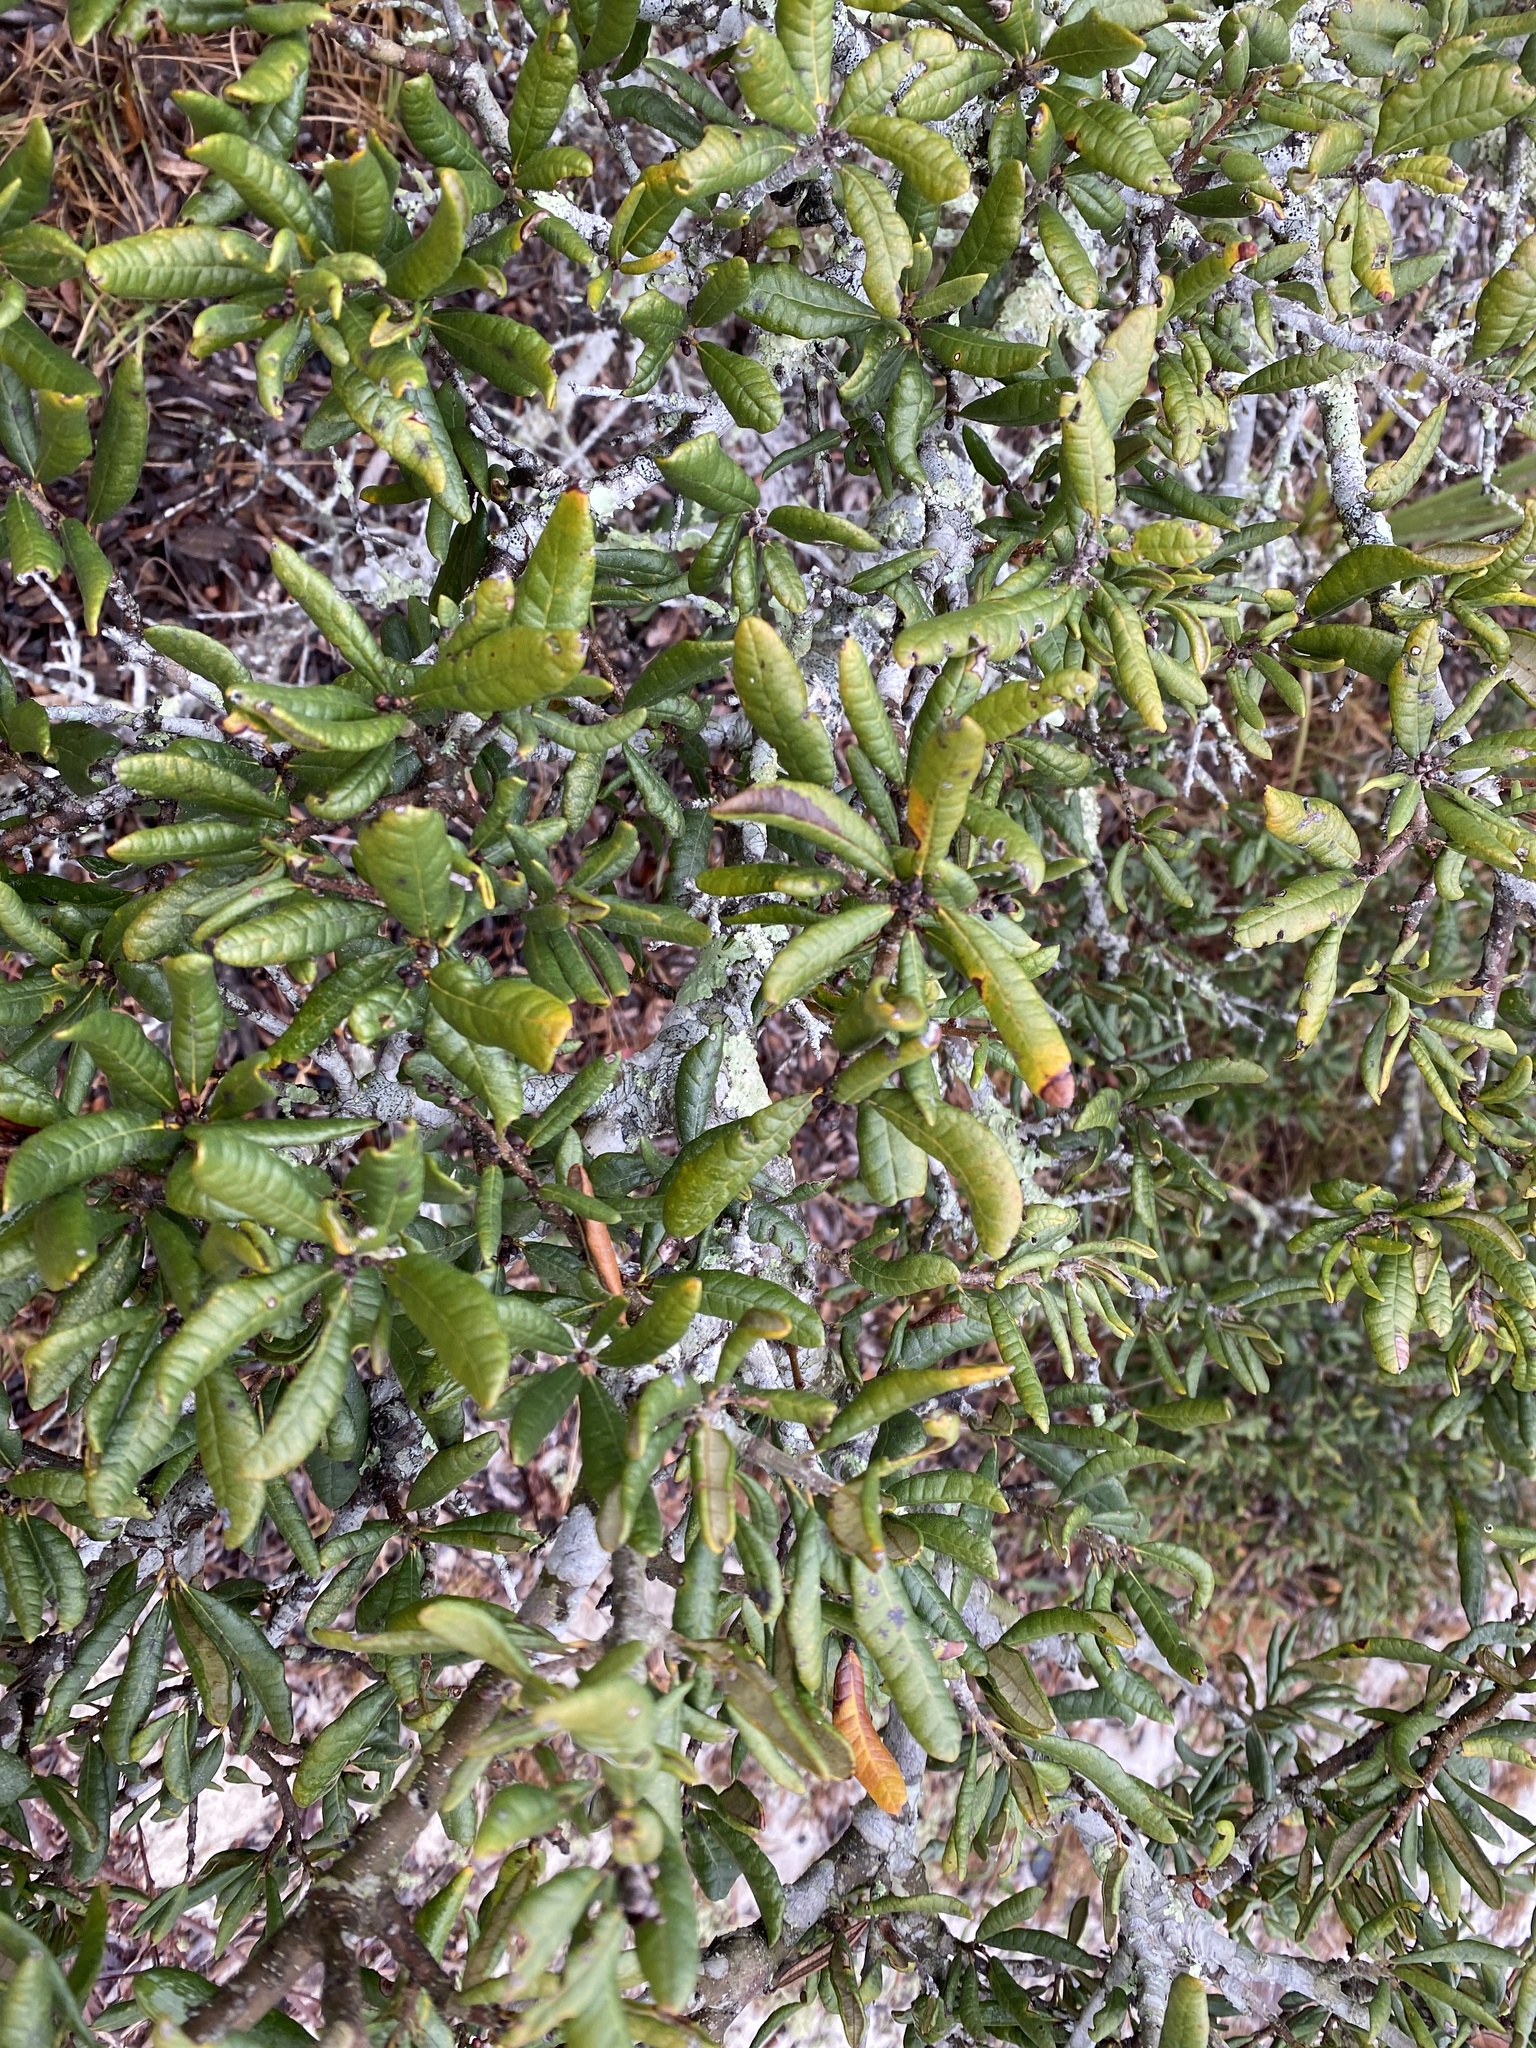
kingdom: Plantae
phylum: Tracheophyta
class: Magnoliopsida
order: Fagales
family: Fagaceae
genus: Quercus
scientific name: Quercus geminata
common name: Sand live oak
